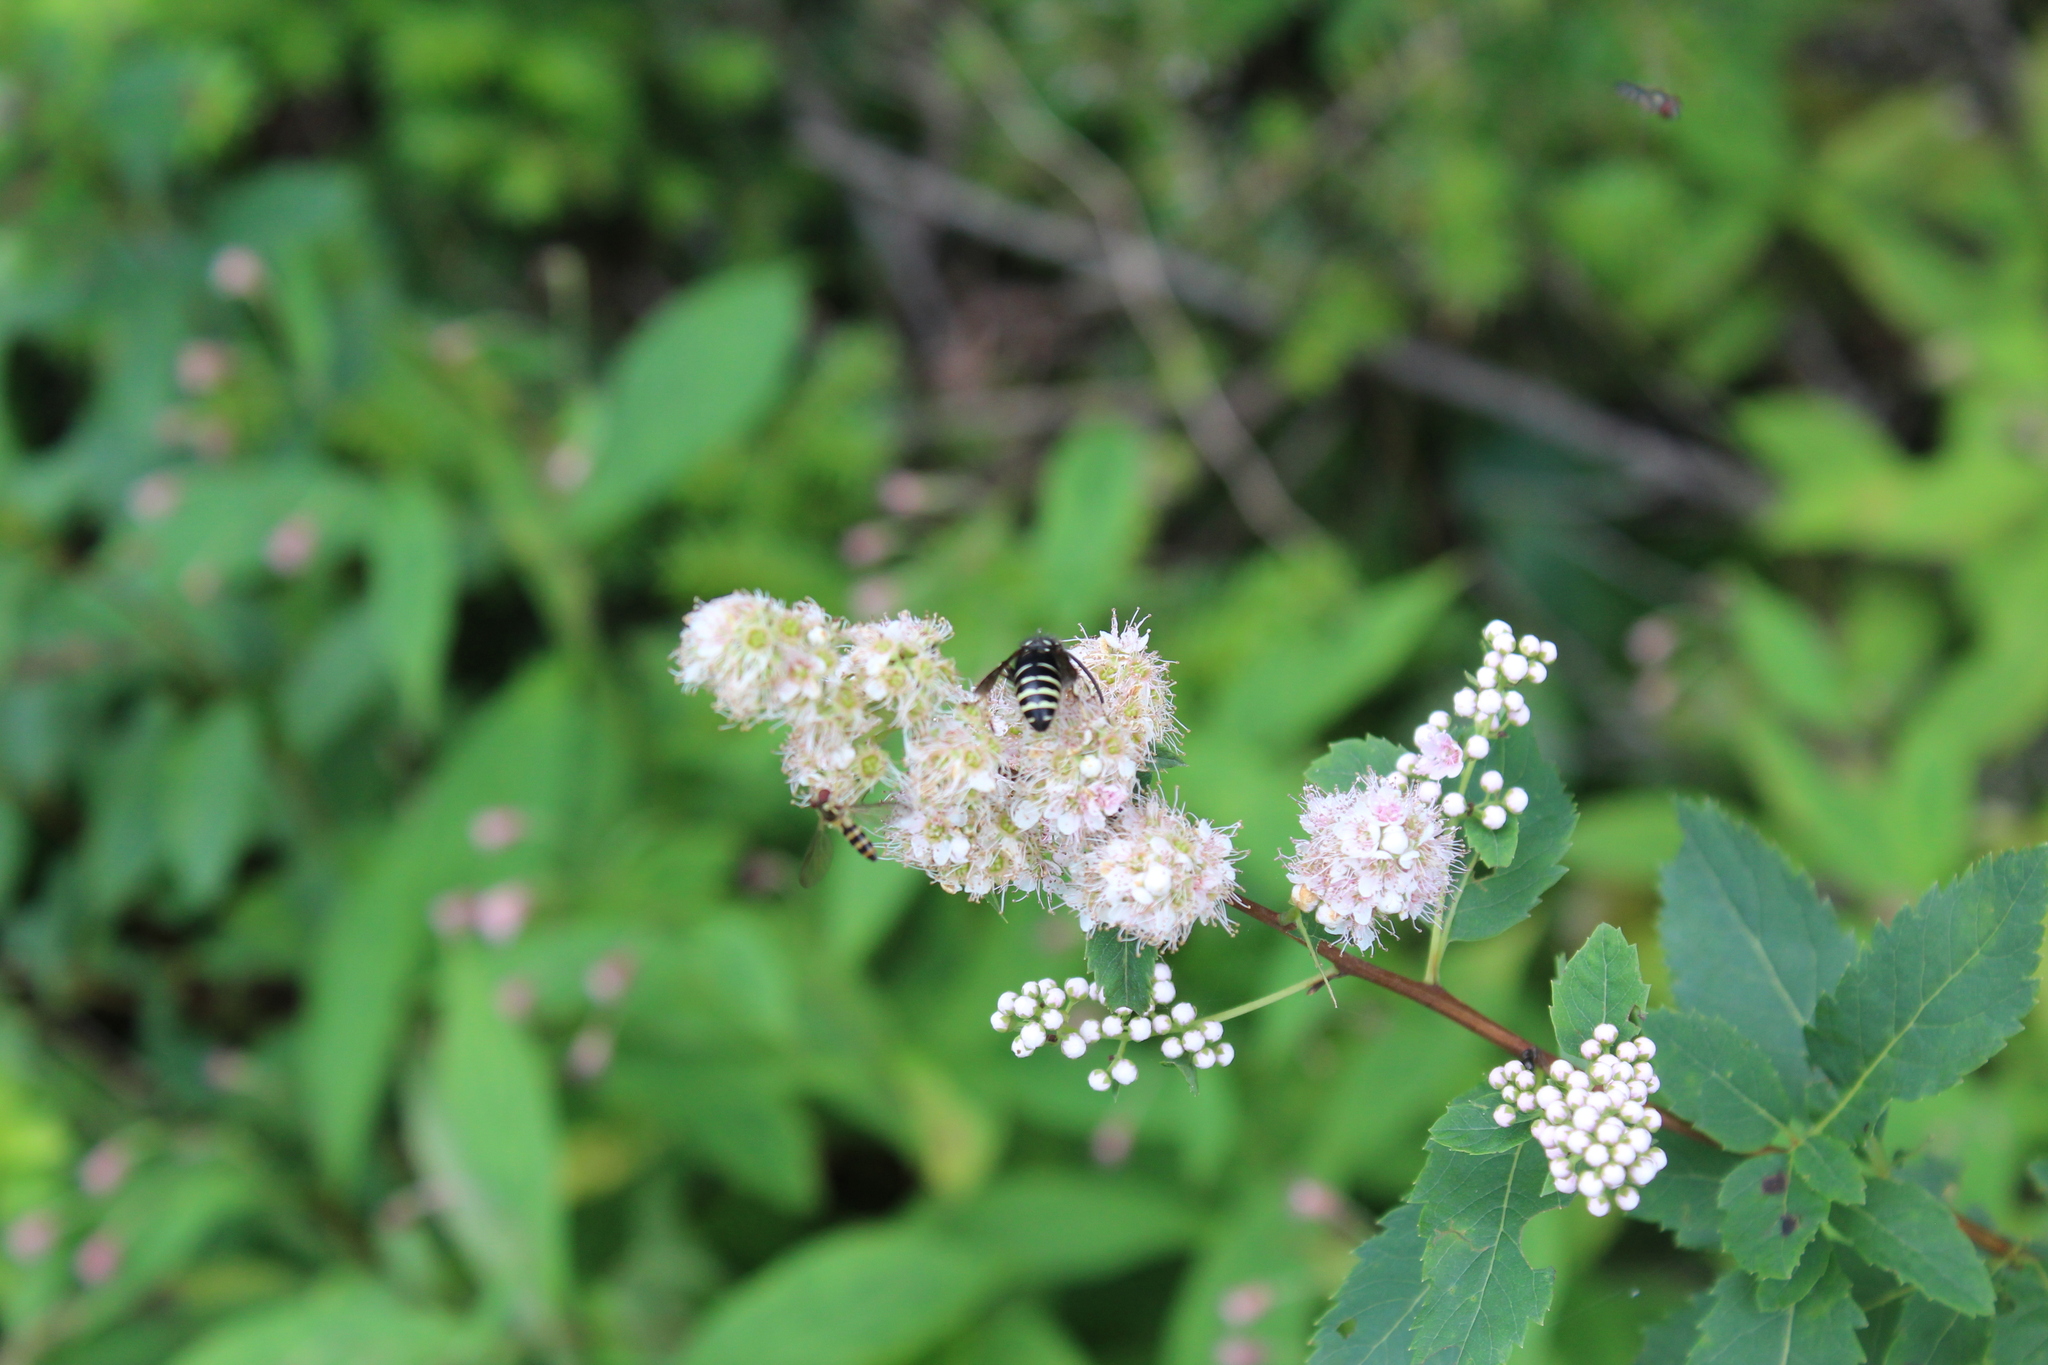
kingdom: Animalia
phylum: Arthropoda
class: Insecta
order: Diptera
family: Syrphidae
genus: Meliscaeva
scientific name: Meliscaeva cinctella
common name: American thintail fly
